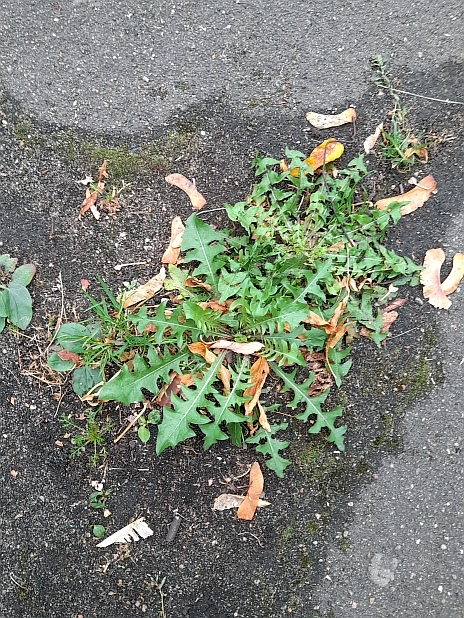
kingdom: Plantae
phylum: Tracheophyta
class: Magnoliopsida
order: Asterales
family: Asteraceae
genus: Taraxacum
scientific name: Taraxacum officinale
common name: Common dandelion
